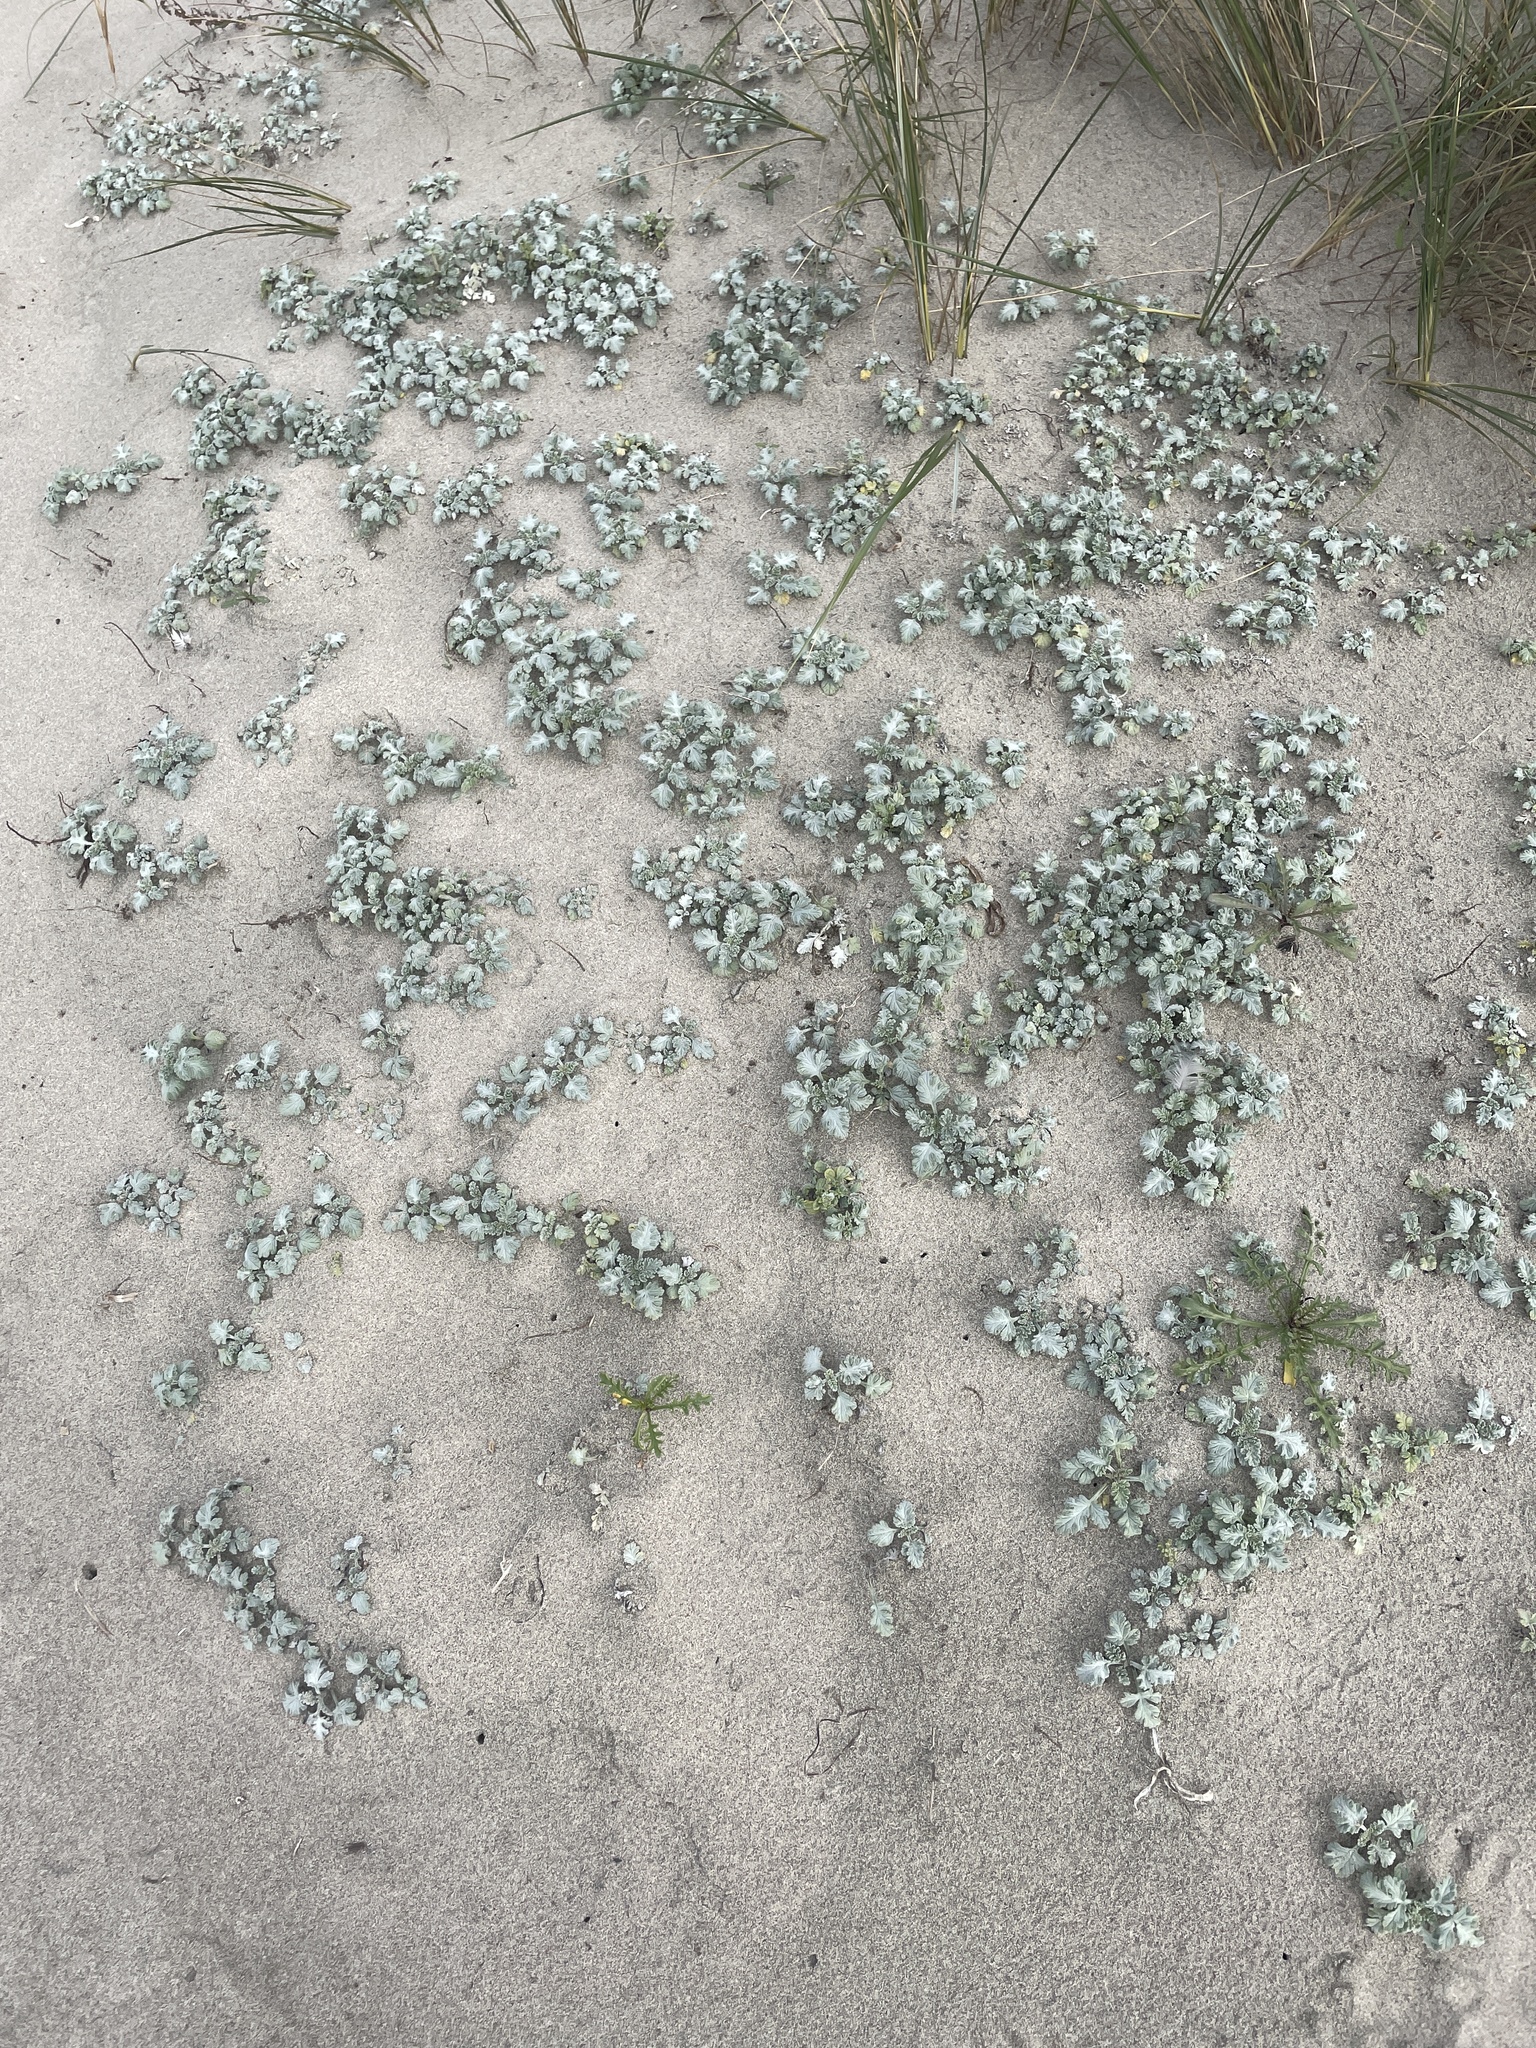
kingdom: Plantae
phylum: Tracheophyta
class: Magnoliopsida
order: Asterales
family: Asteraceae
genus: Ambrosia
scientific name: Ambrosia chamissonis
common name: Beachbur
